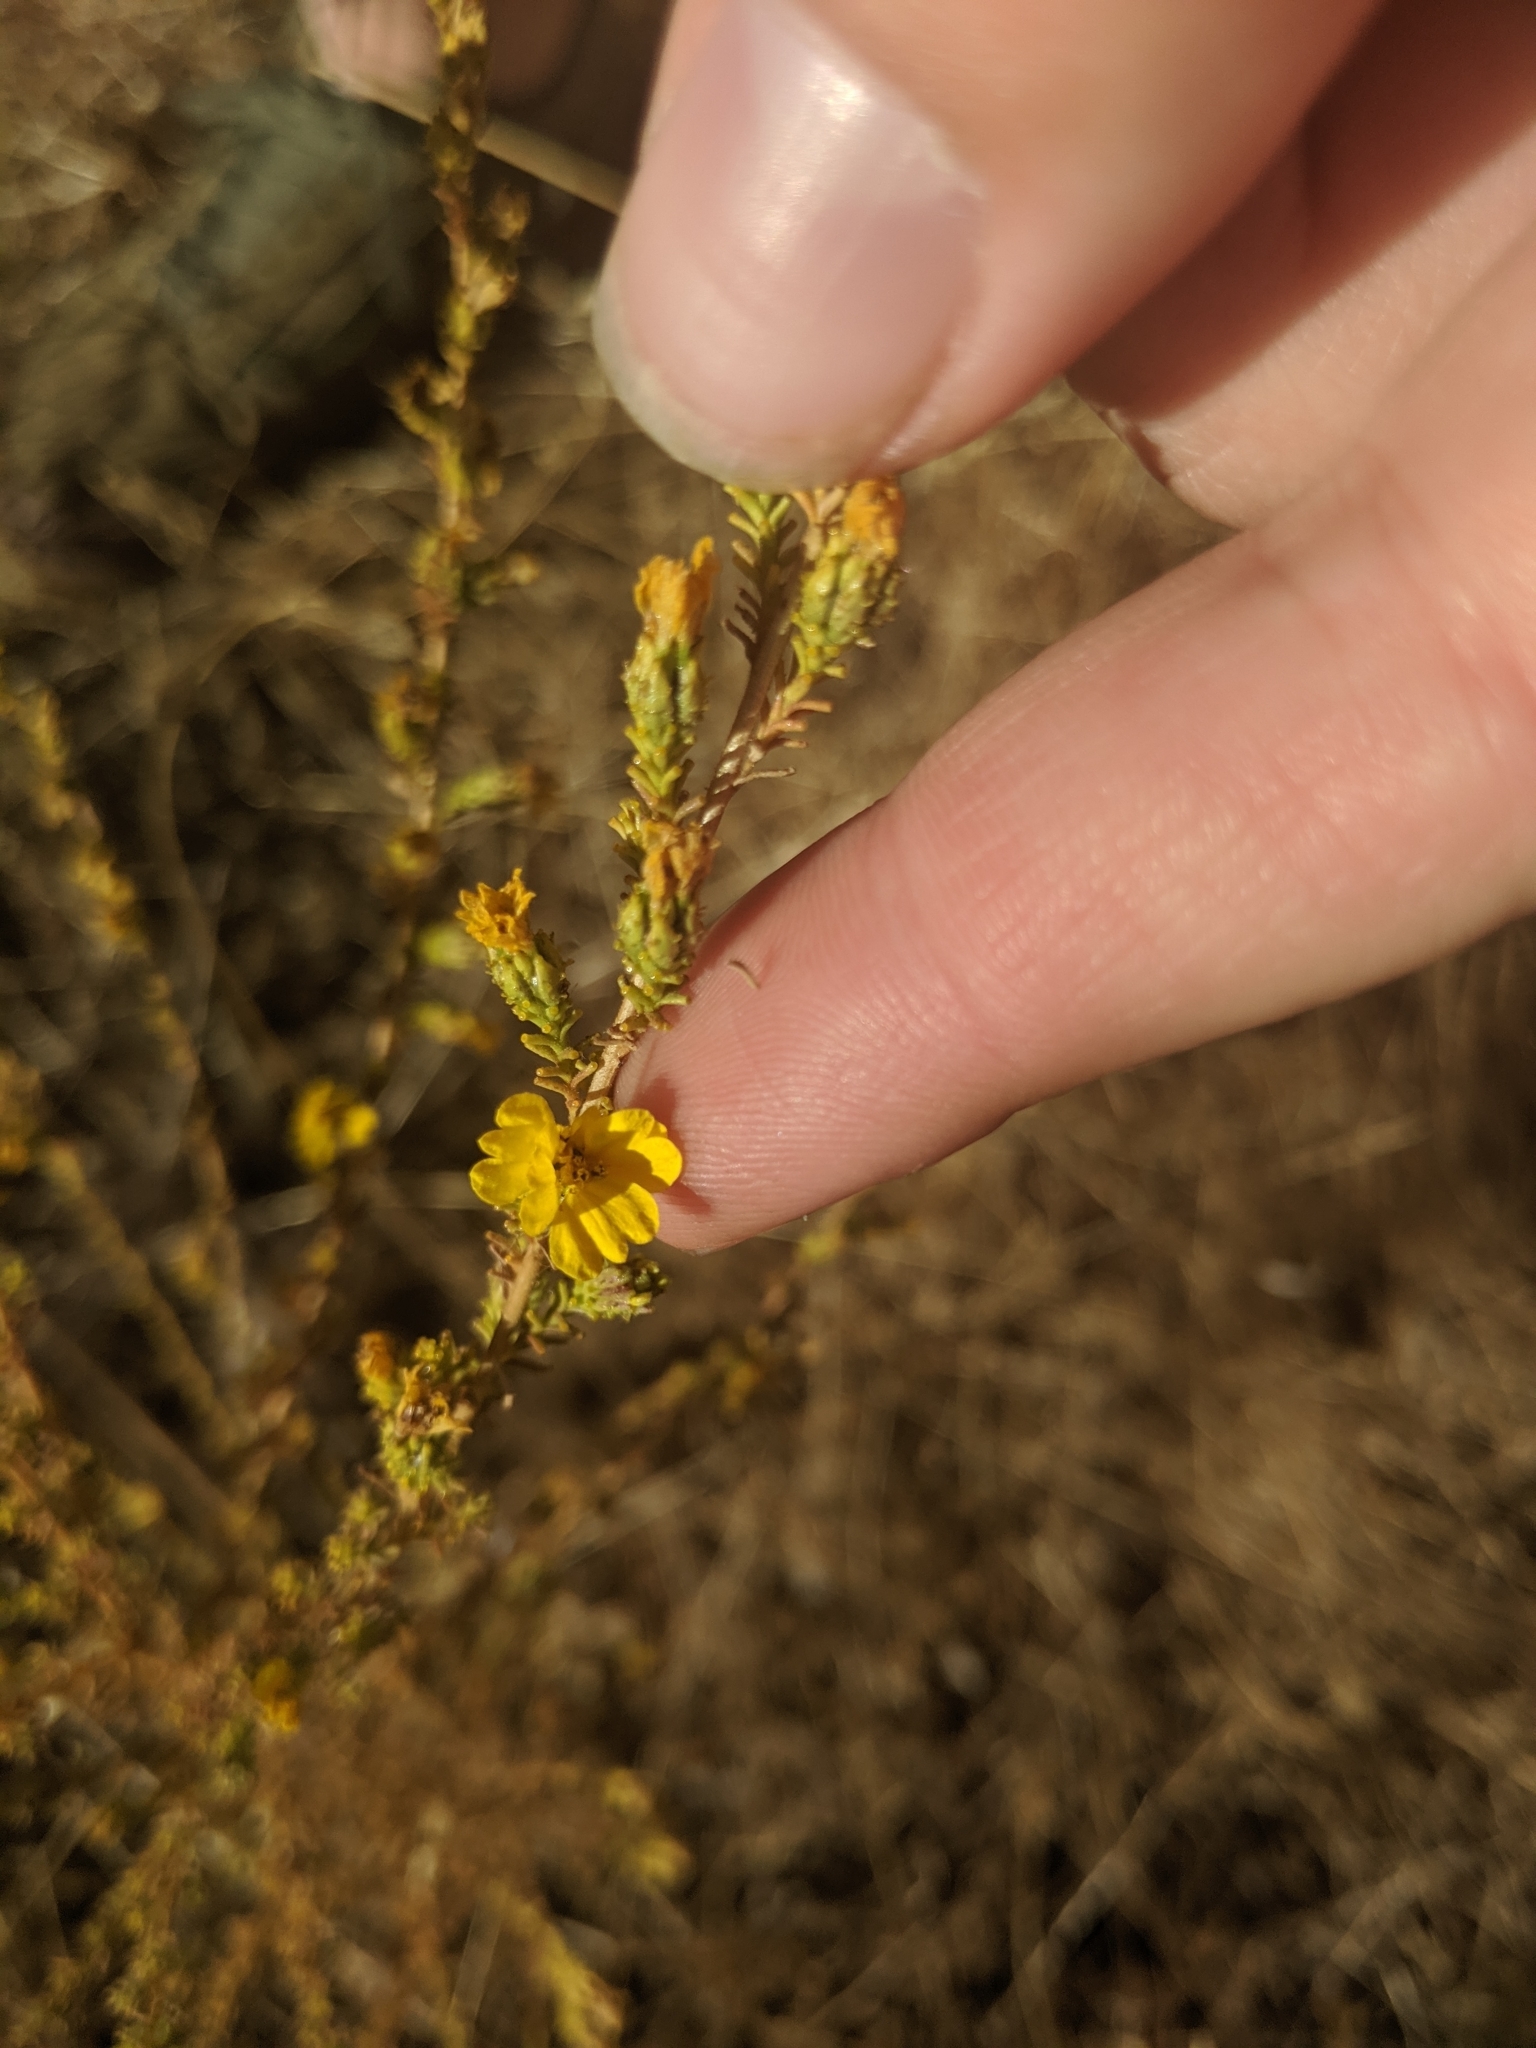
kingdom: Plantae
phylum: Tracheophyta
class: Magnoliopsida
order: Asterales
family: Asteraceae
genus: Holocarpha
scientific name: Holocarpha virgata
